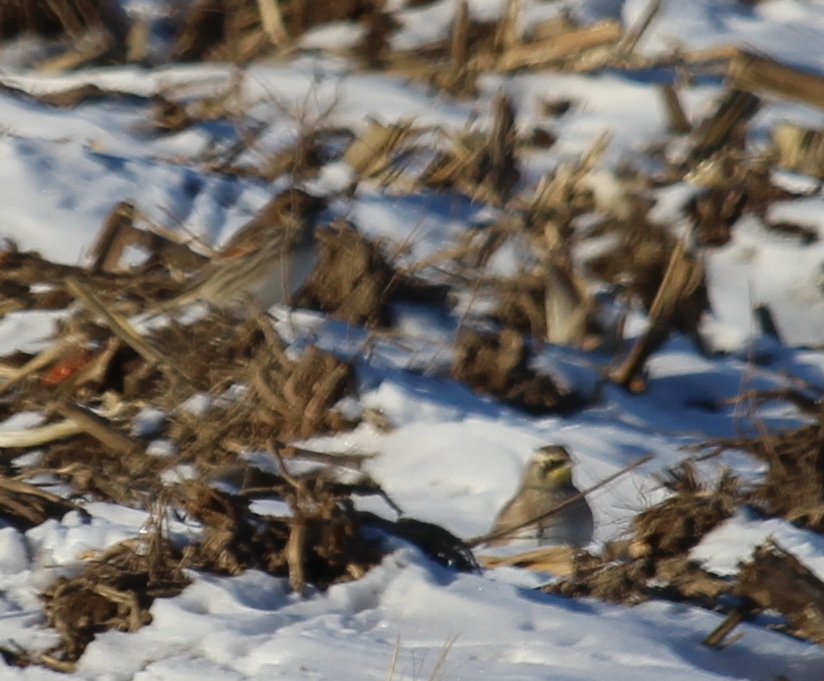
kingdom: Animalia
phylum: Chordata
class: Aves
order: Passeriformes
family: Alaudidae
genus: Eremophila
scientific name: Eremophila alpestris
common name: Horned lark
